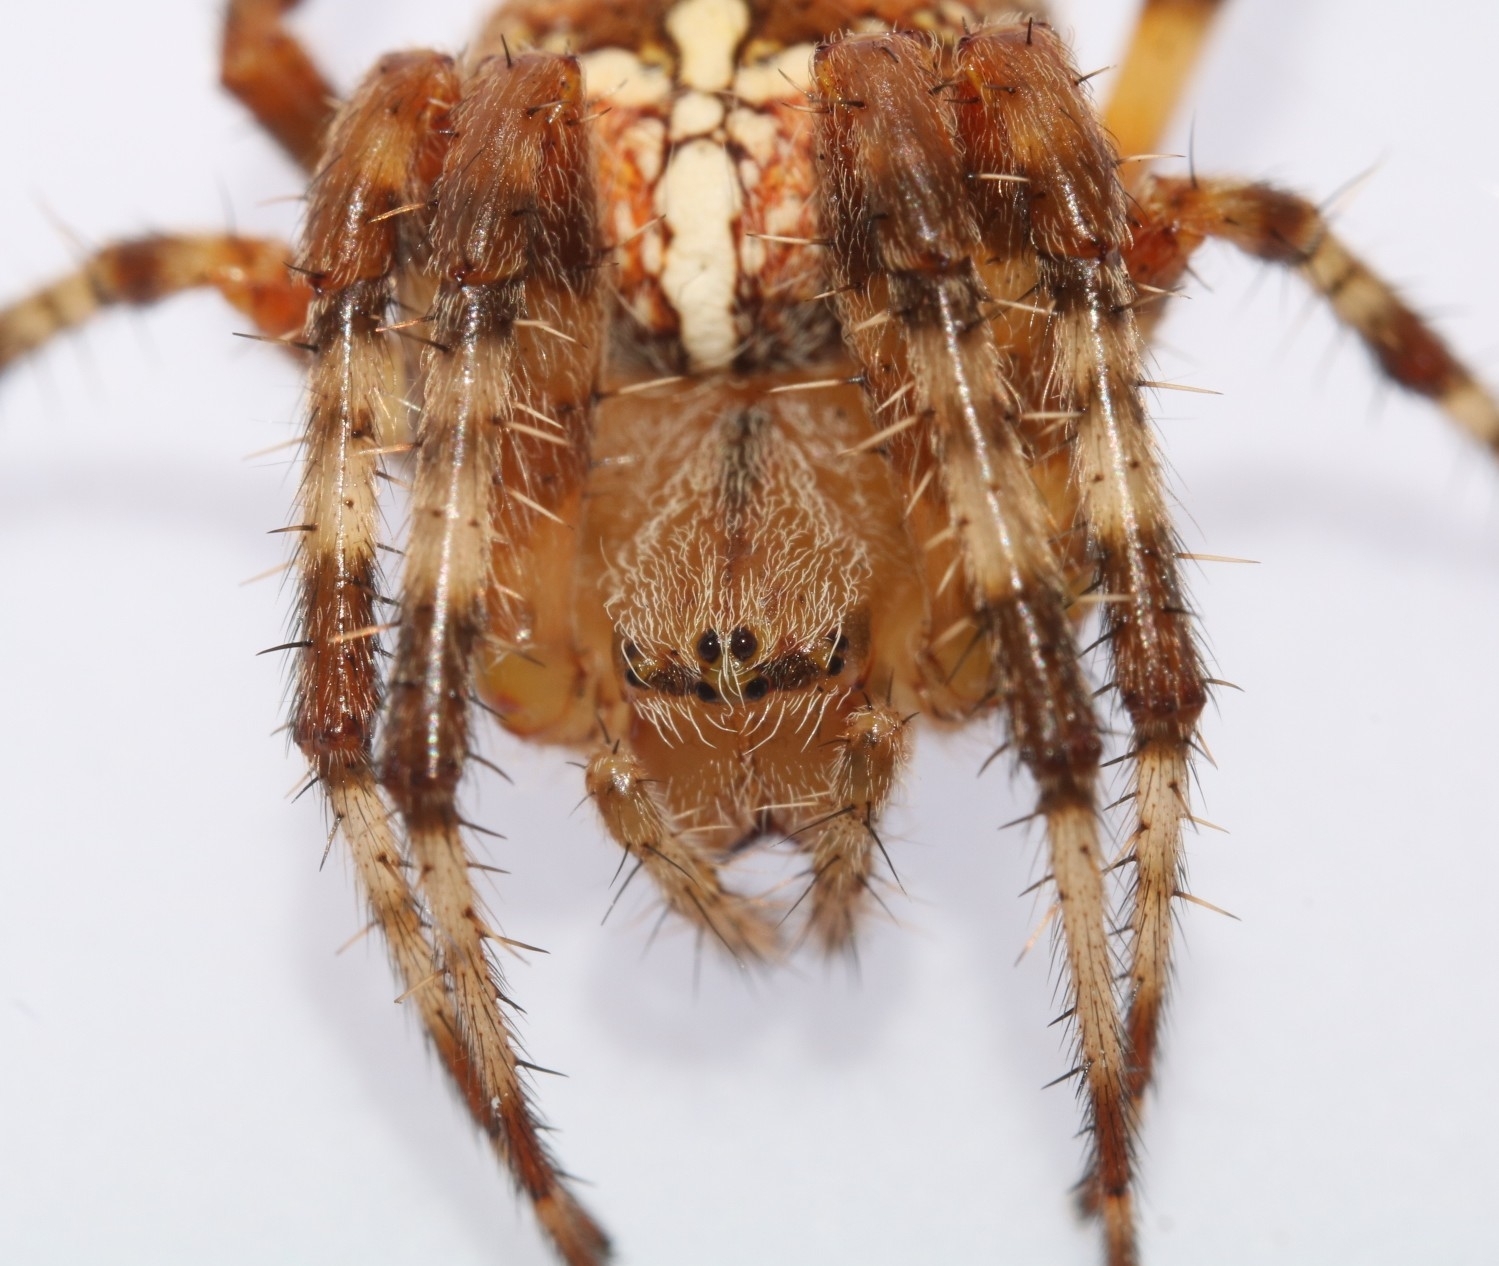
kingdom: Animalia
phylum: Arthropoda
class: Arachnida
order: Araneae
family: Araneidae
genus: Araneus
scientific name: Araneus diadematus
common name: Cross orbweaver
